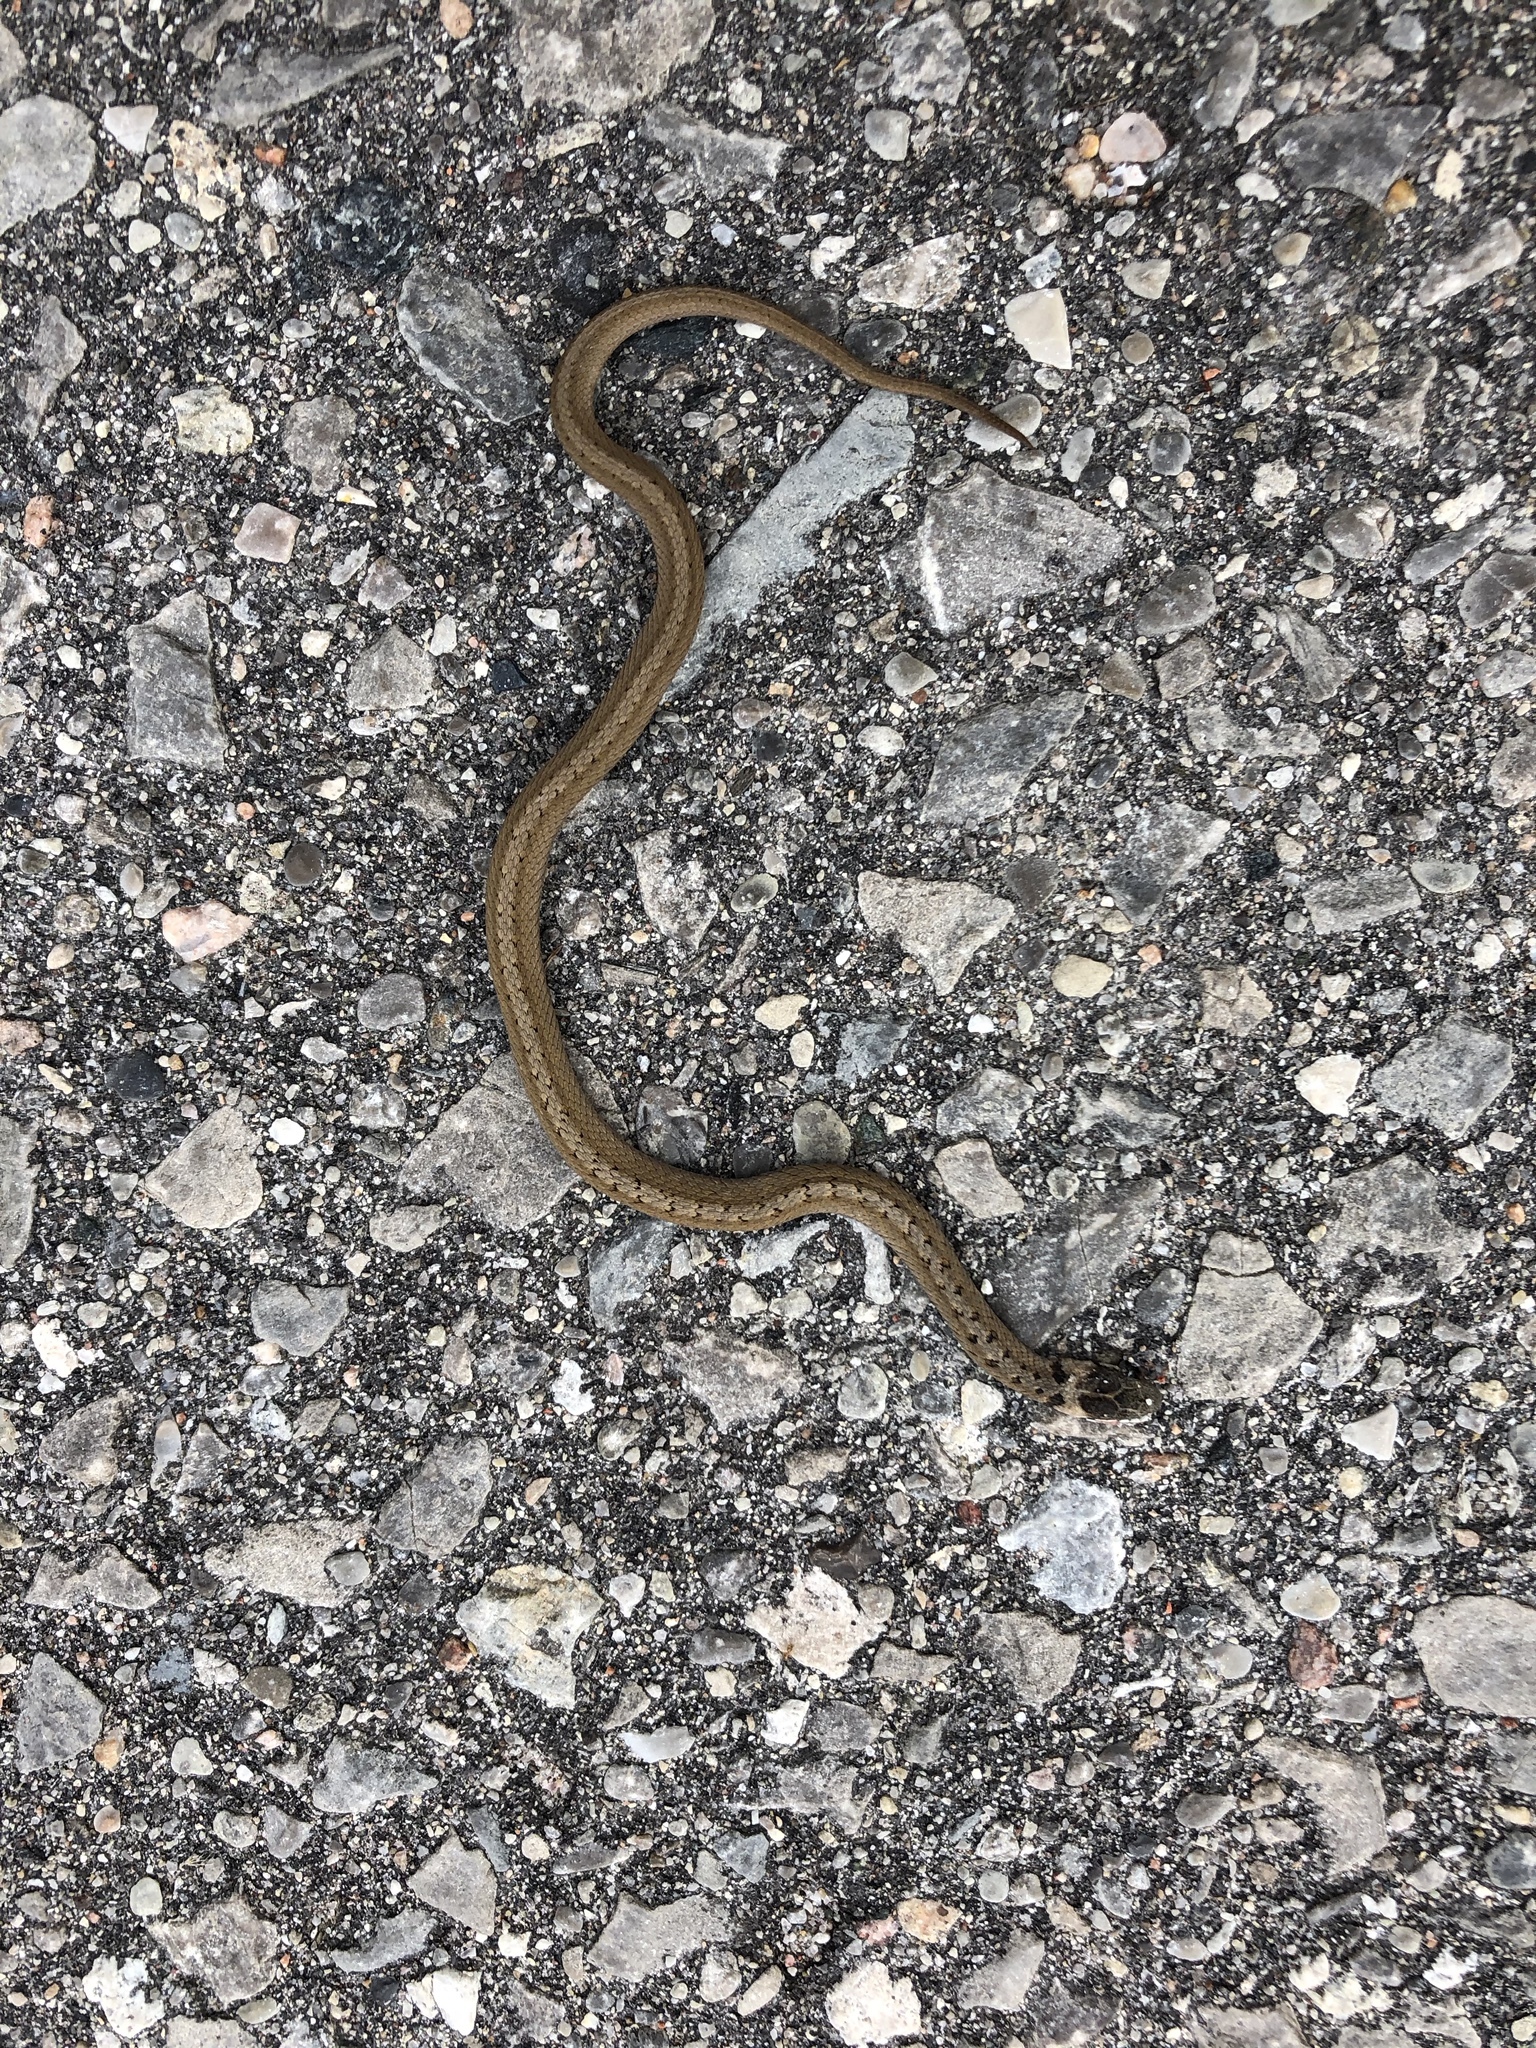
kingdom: Animalia
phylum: Chordata
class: Squamata
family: Colubridae
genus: Storeria
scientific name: Storeria dekayi
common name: (dekay’s) brown snake
